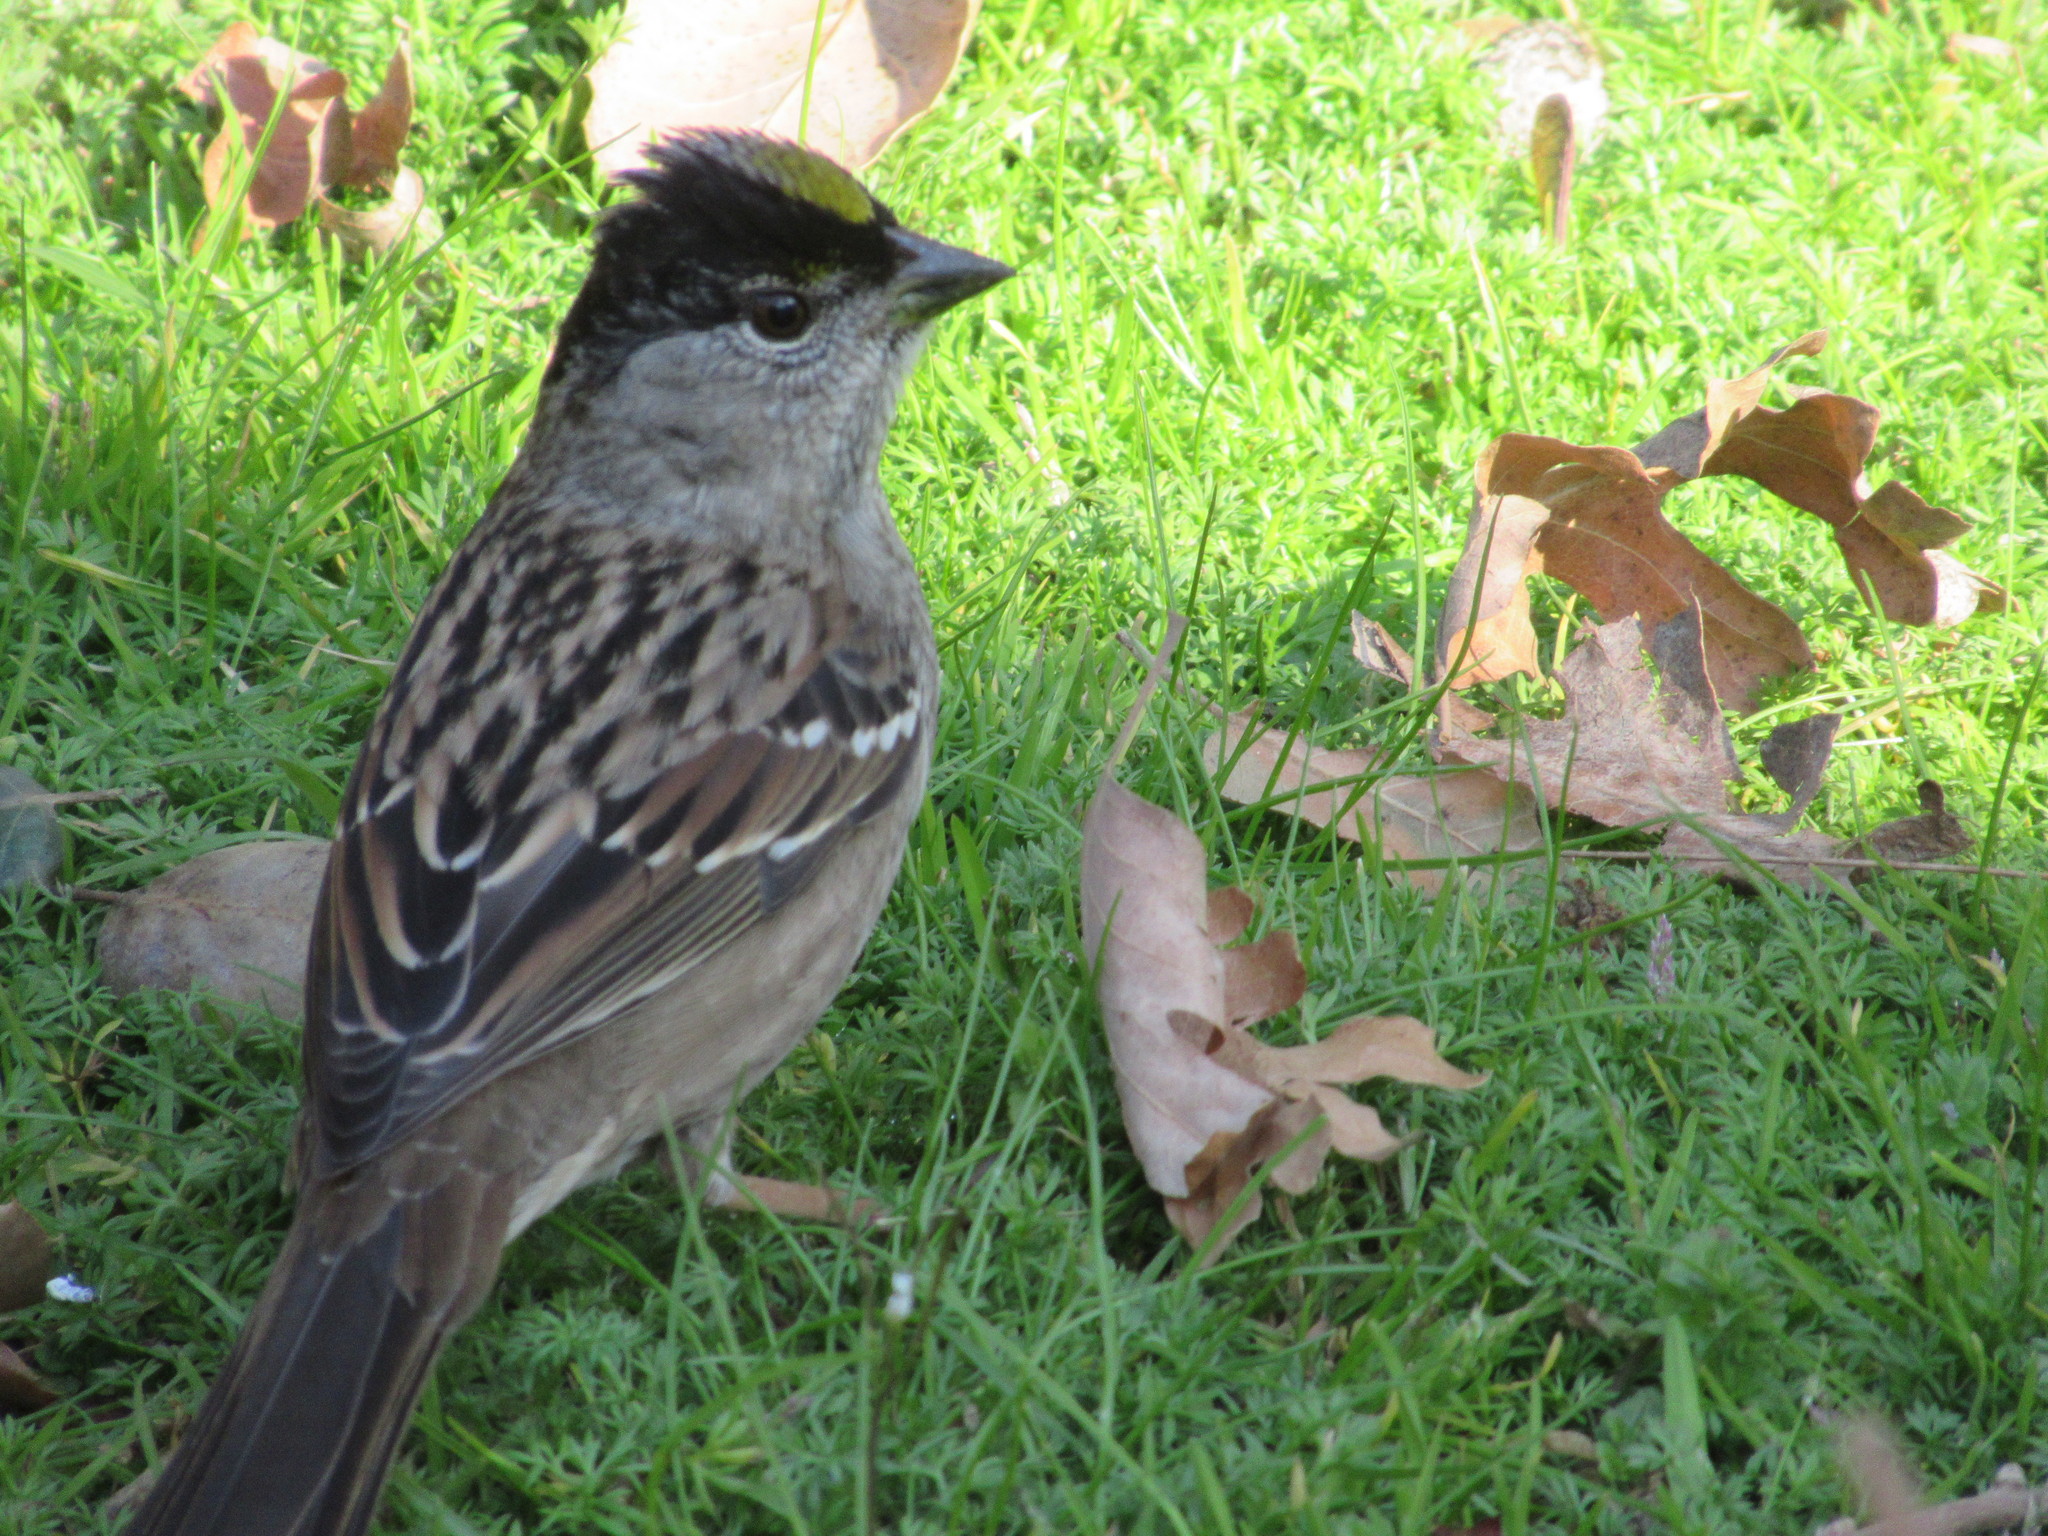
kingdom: Animalia
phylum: Chordata
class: Aves
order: Passeriformes
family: Passerellidae
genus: Zonotrichia
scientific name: Zonotrichia atricapilla
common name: Golden-crowned sparrow
